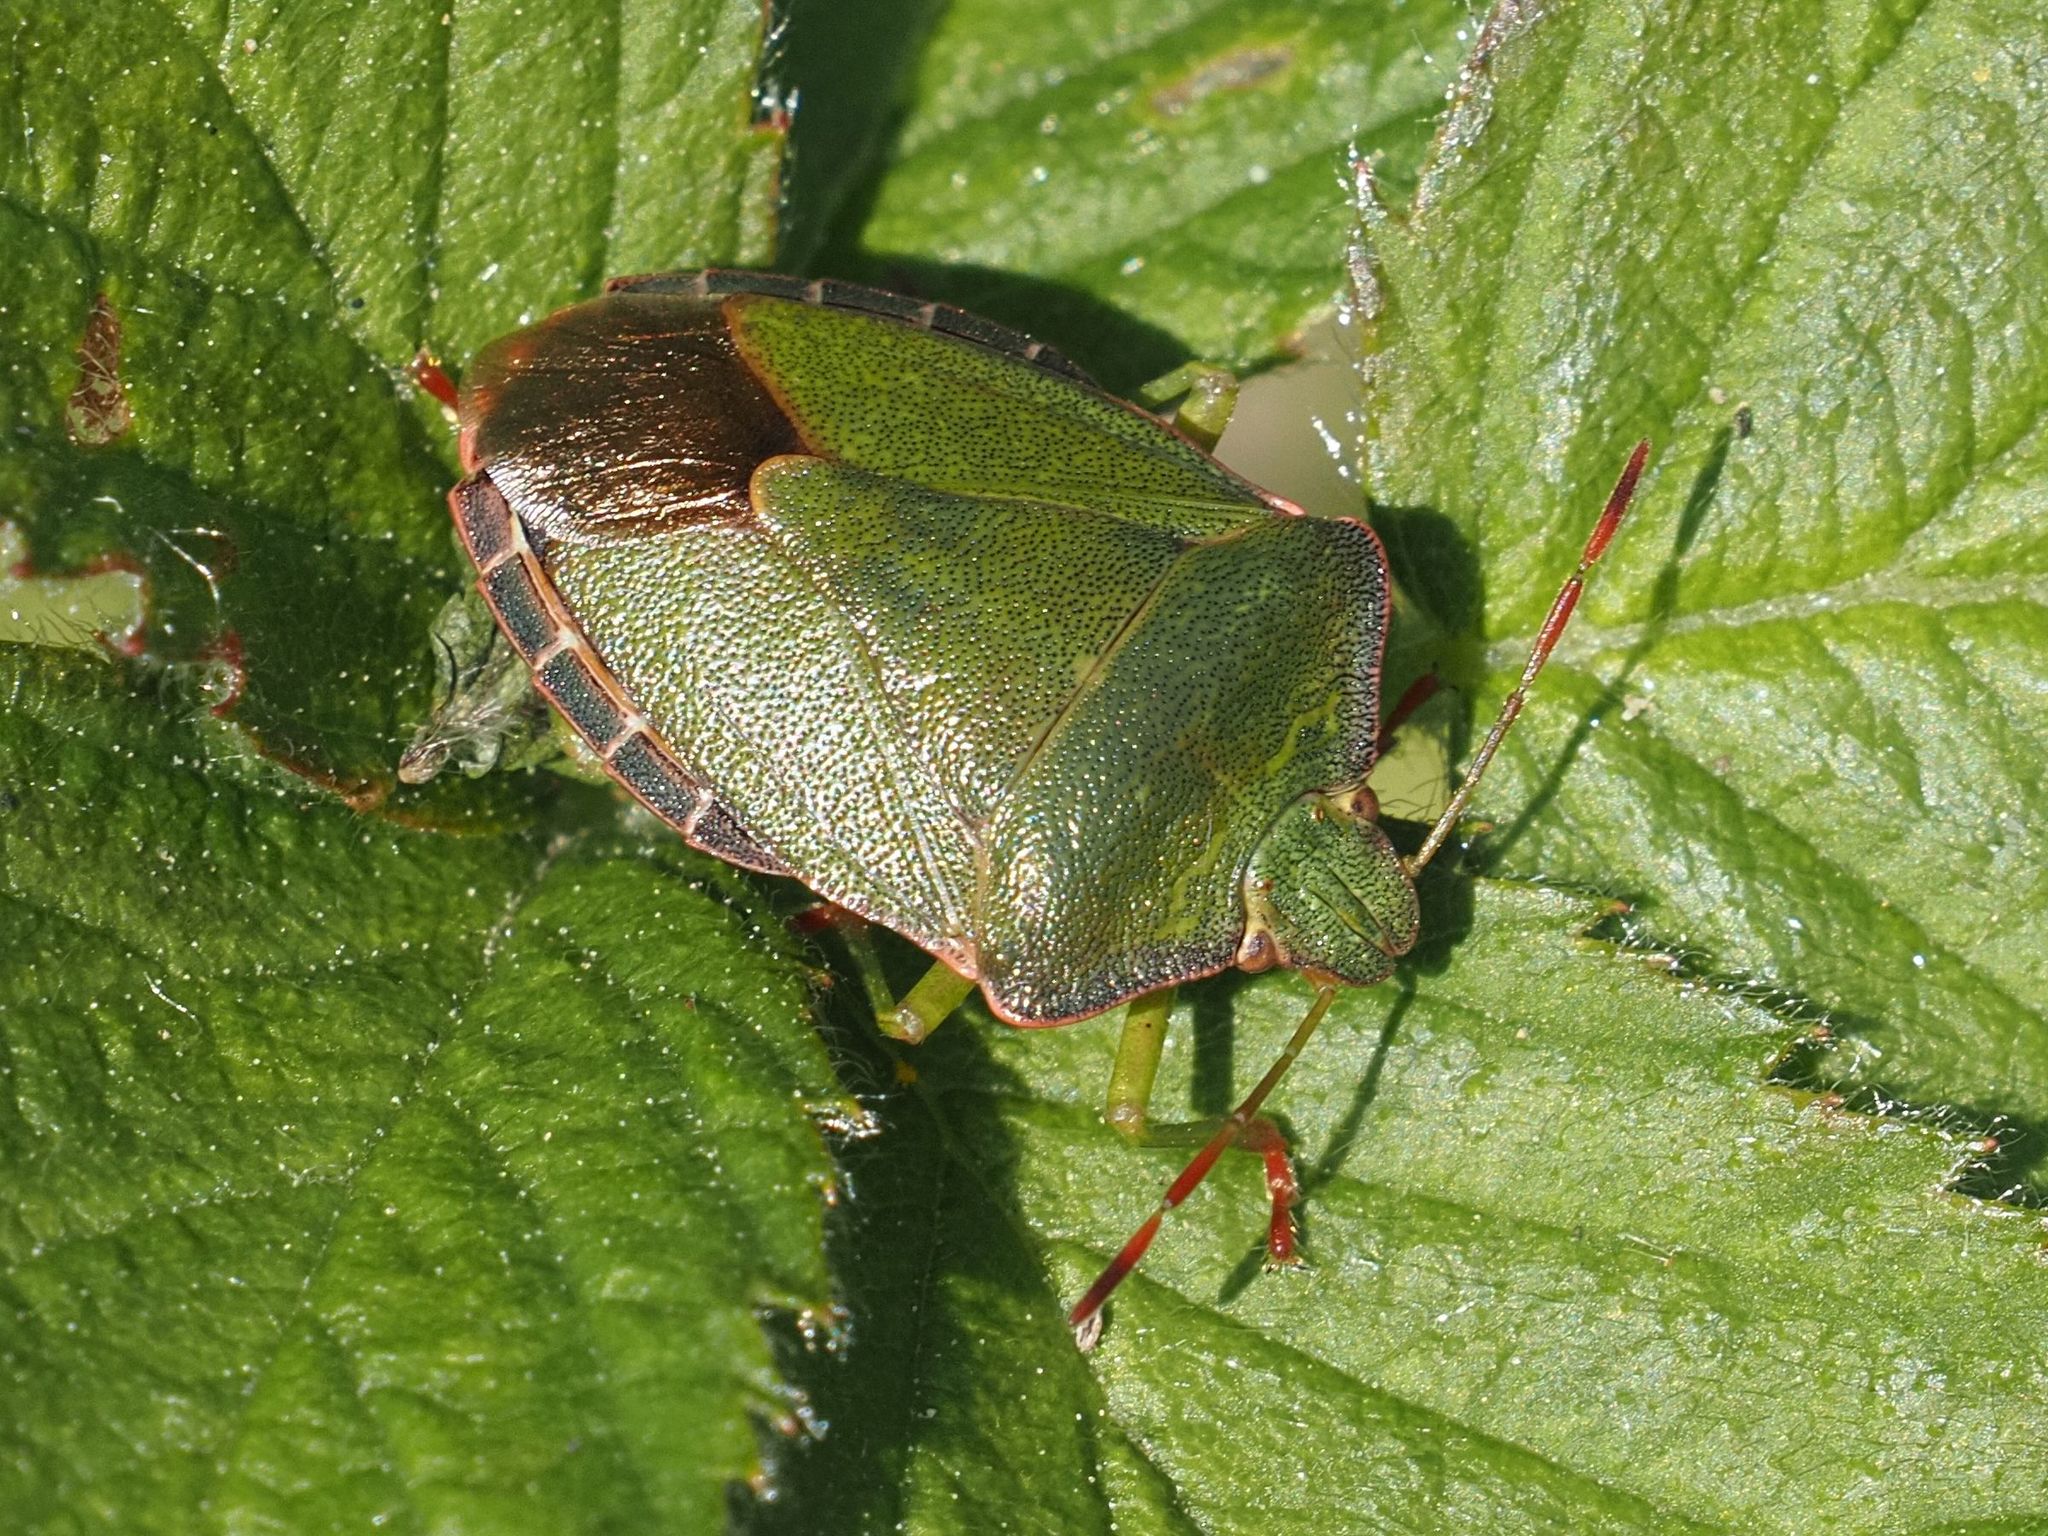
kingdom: Animalia
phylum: Arthropoda
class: Insecta
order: Hemiptera
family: Pentatomidae
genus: Palomena
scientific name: Palomena prasina
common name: Green shieldbug
